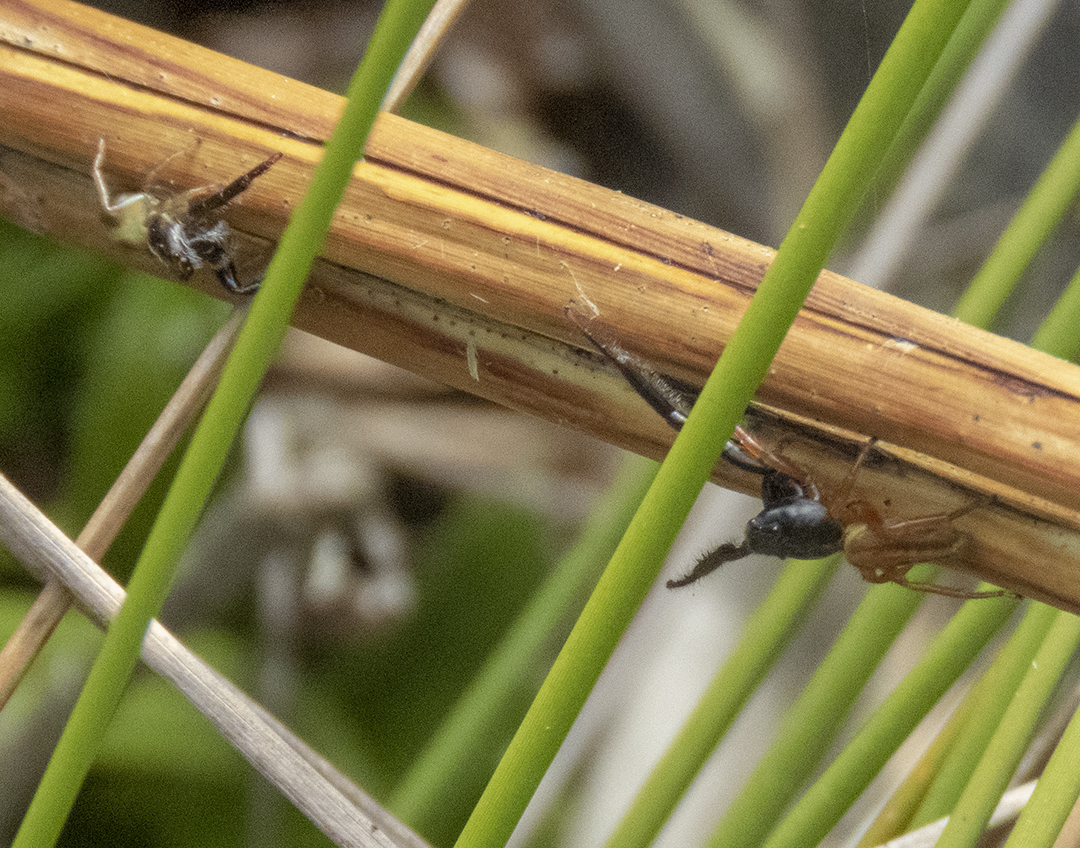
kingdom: Animalia
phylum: Arthropoda
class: Arachnida
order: Araneae
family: Salticidae
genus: Trite
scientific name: Trite planiceps
